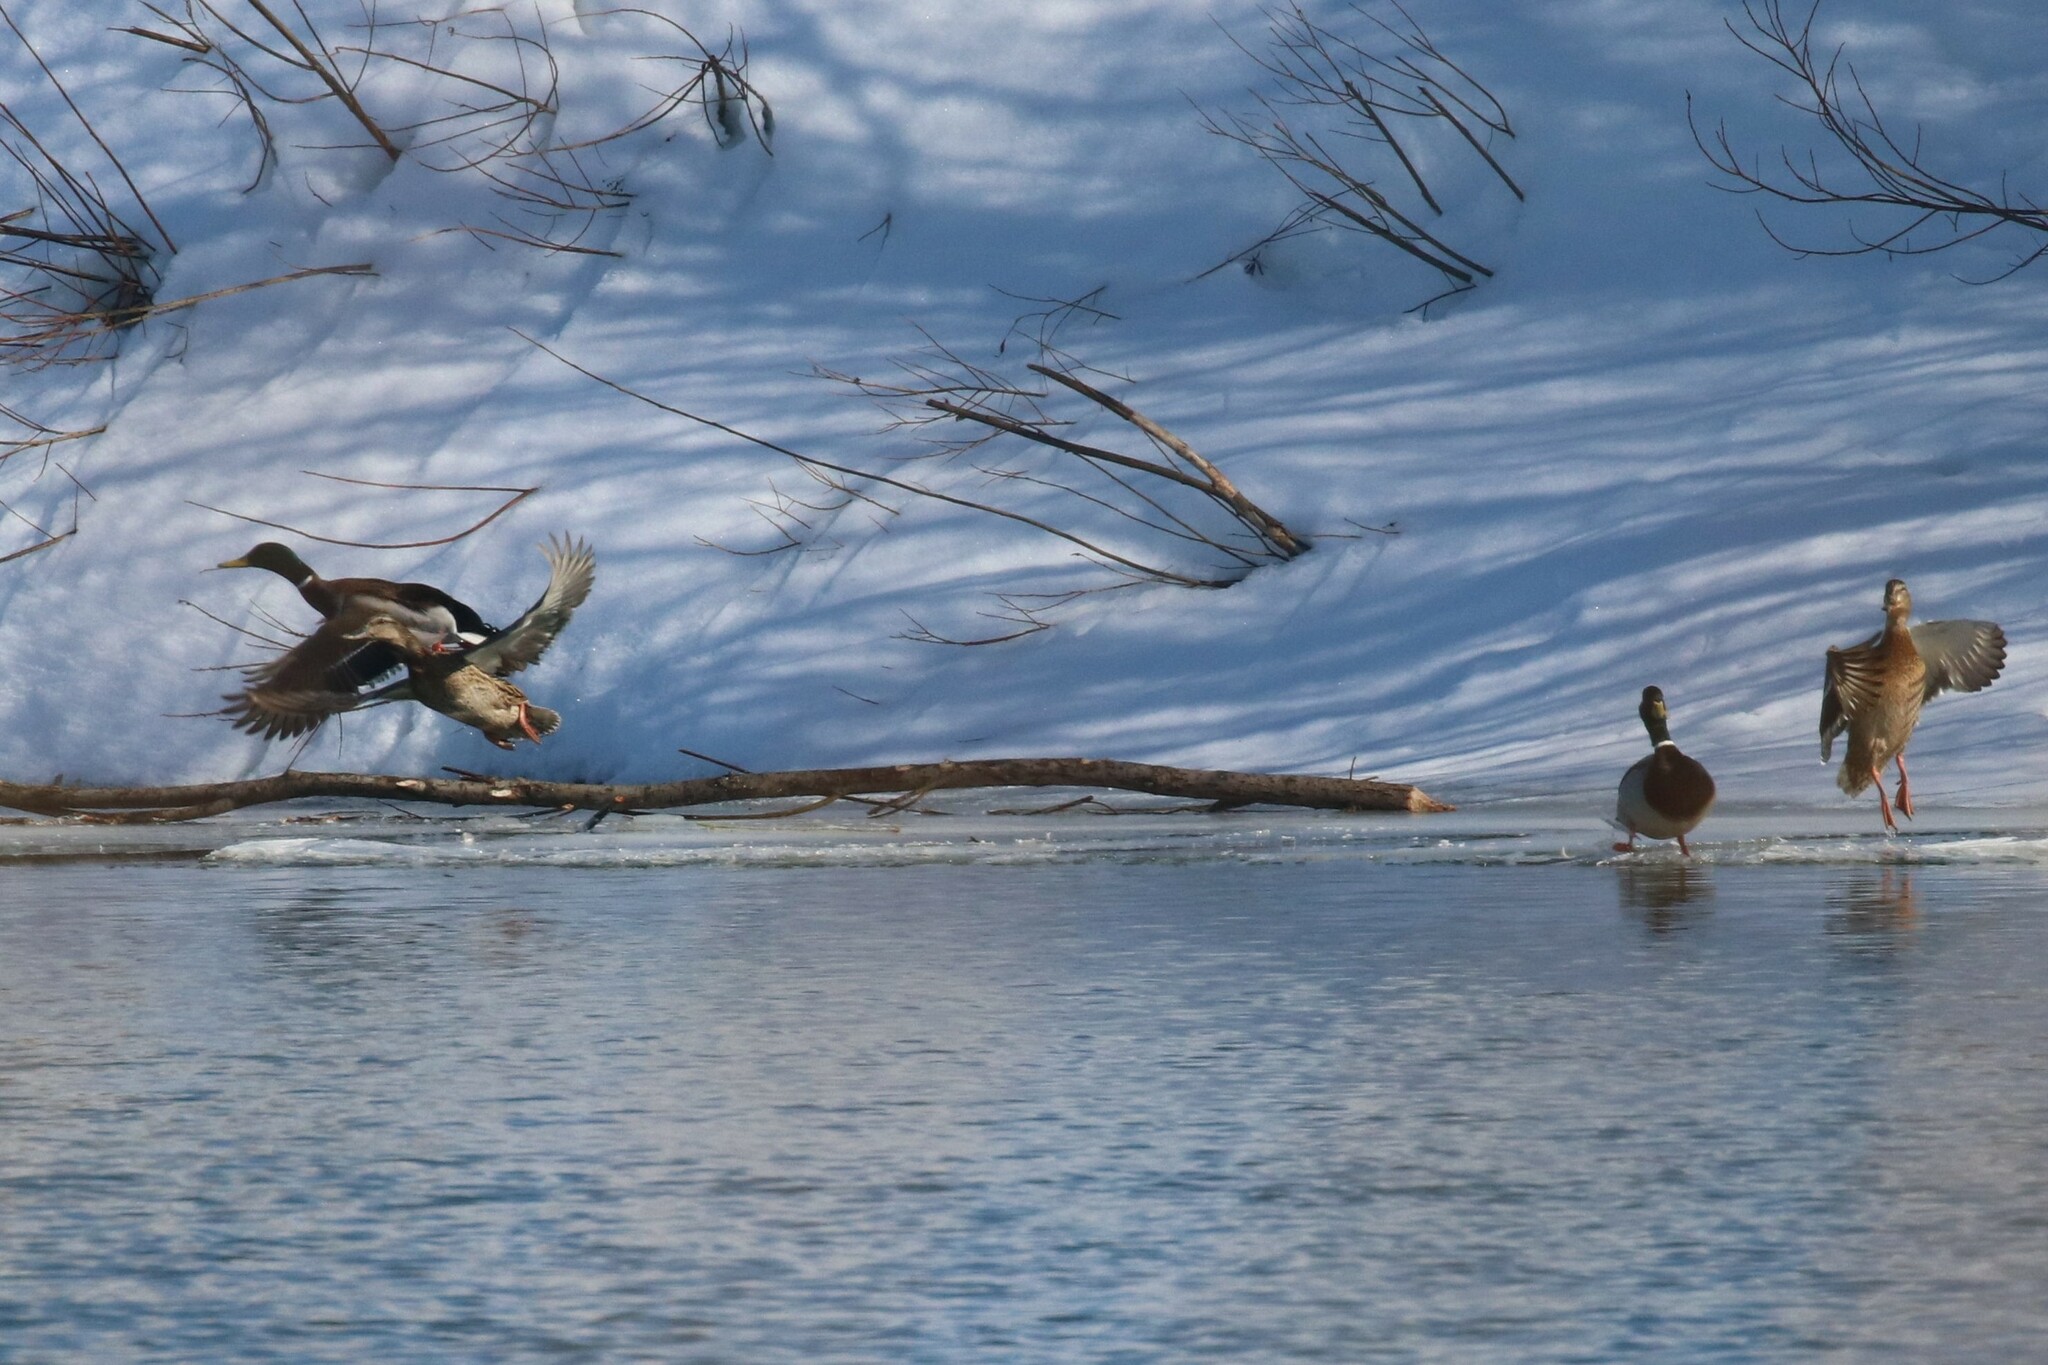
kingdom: Animalia
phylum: Chordata
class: Aves
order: Anseriformes
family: Anatidae
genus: Anas
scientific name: Anas platyrhynchos
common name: Mallard
